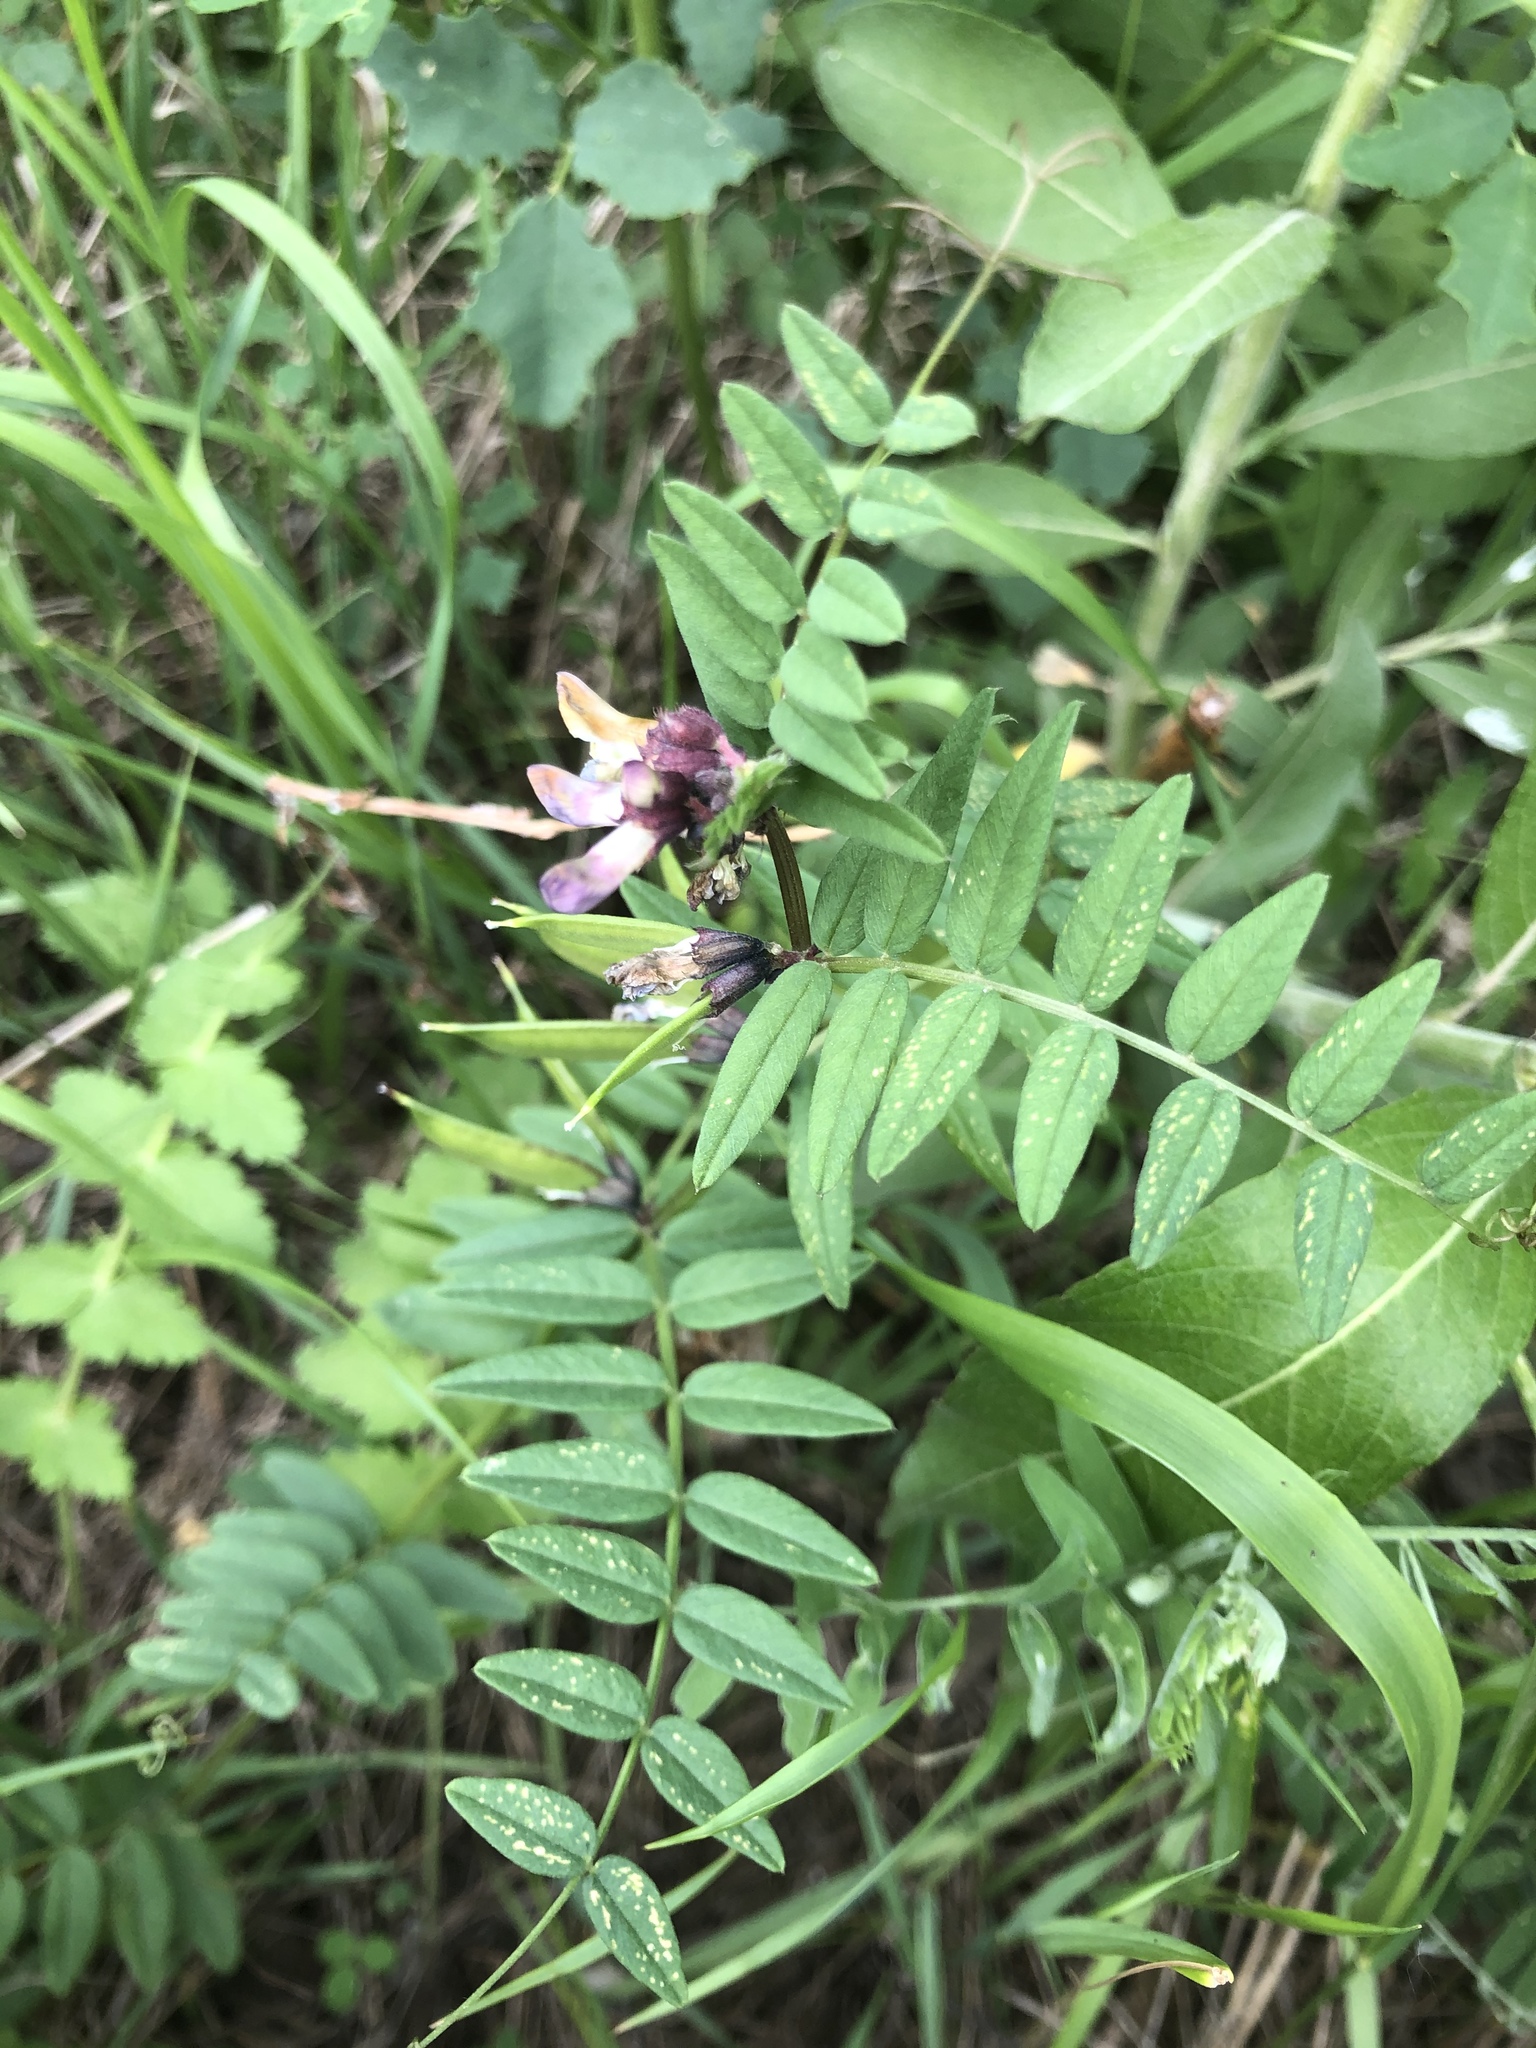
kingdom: Plantae
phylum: Tracheophyta
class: Magnoliopsida
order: Fabales
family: Fabaceae
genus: Vicia
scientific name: Vicia sepium
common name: Bush vetch
